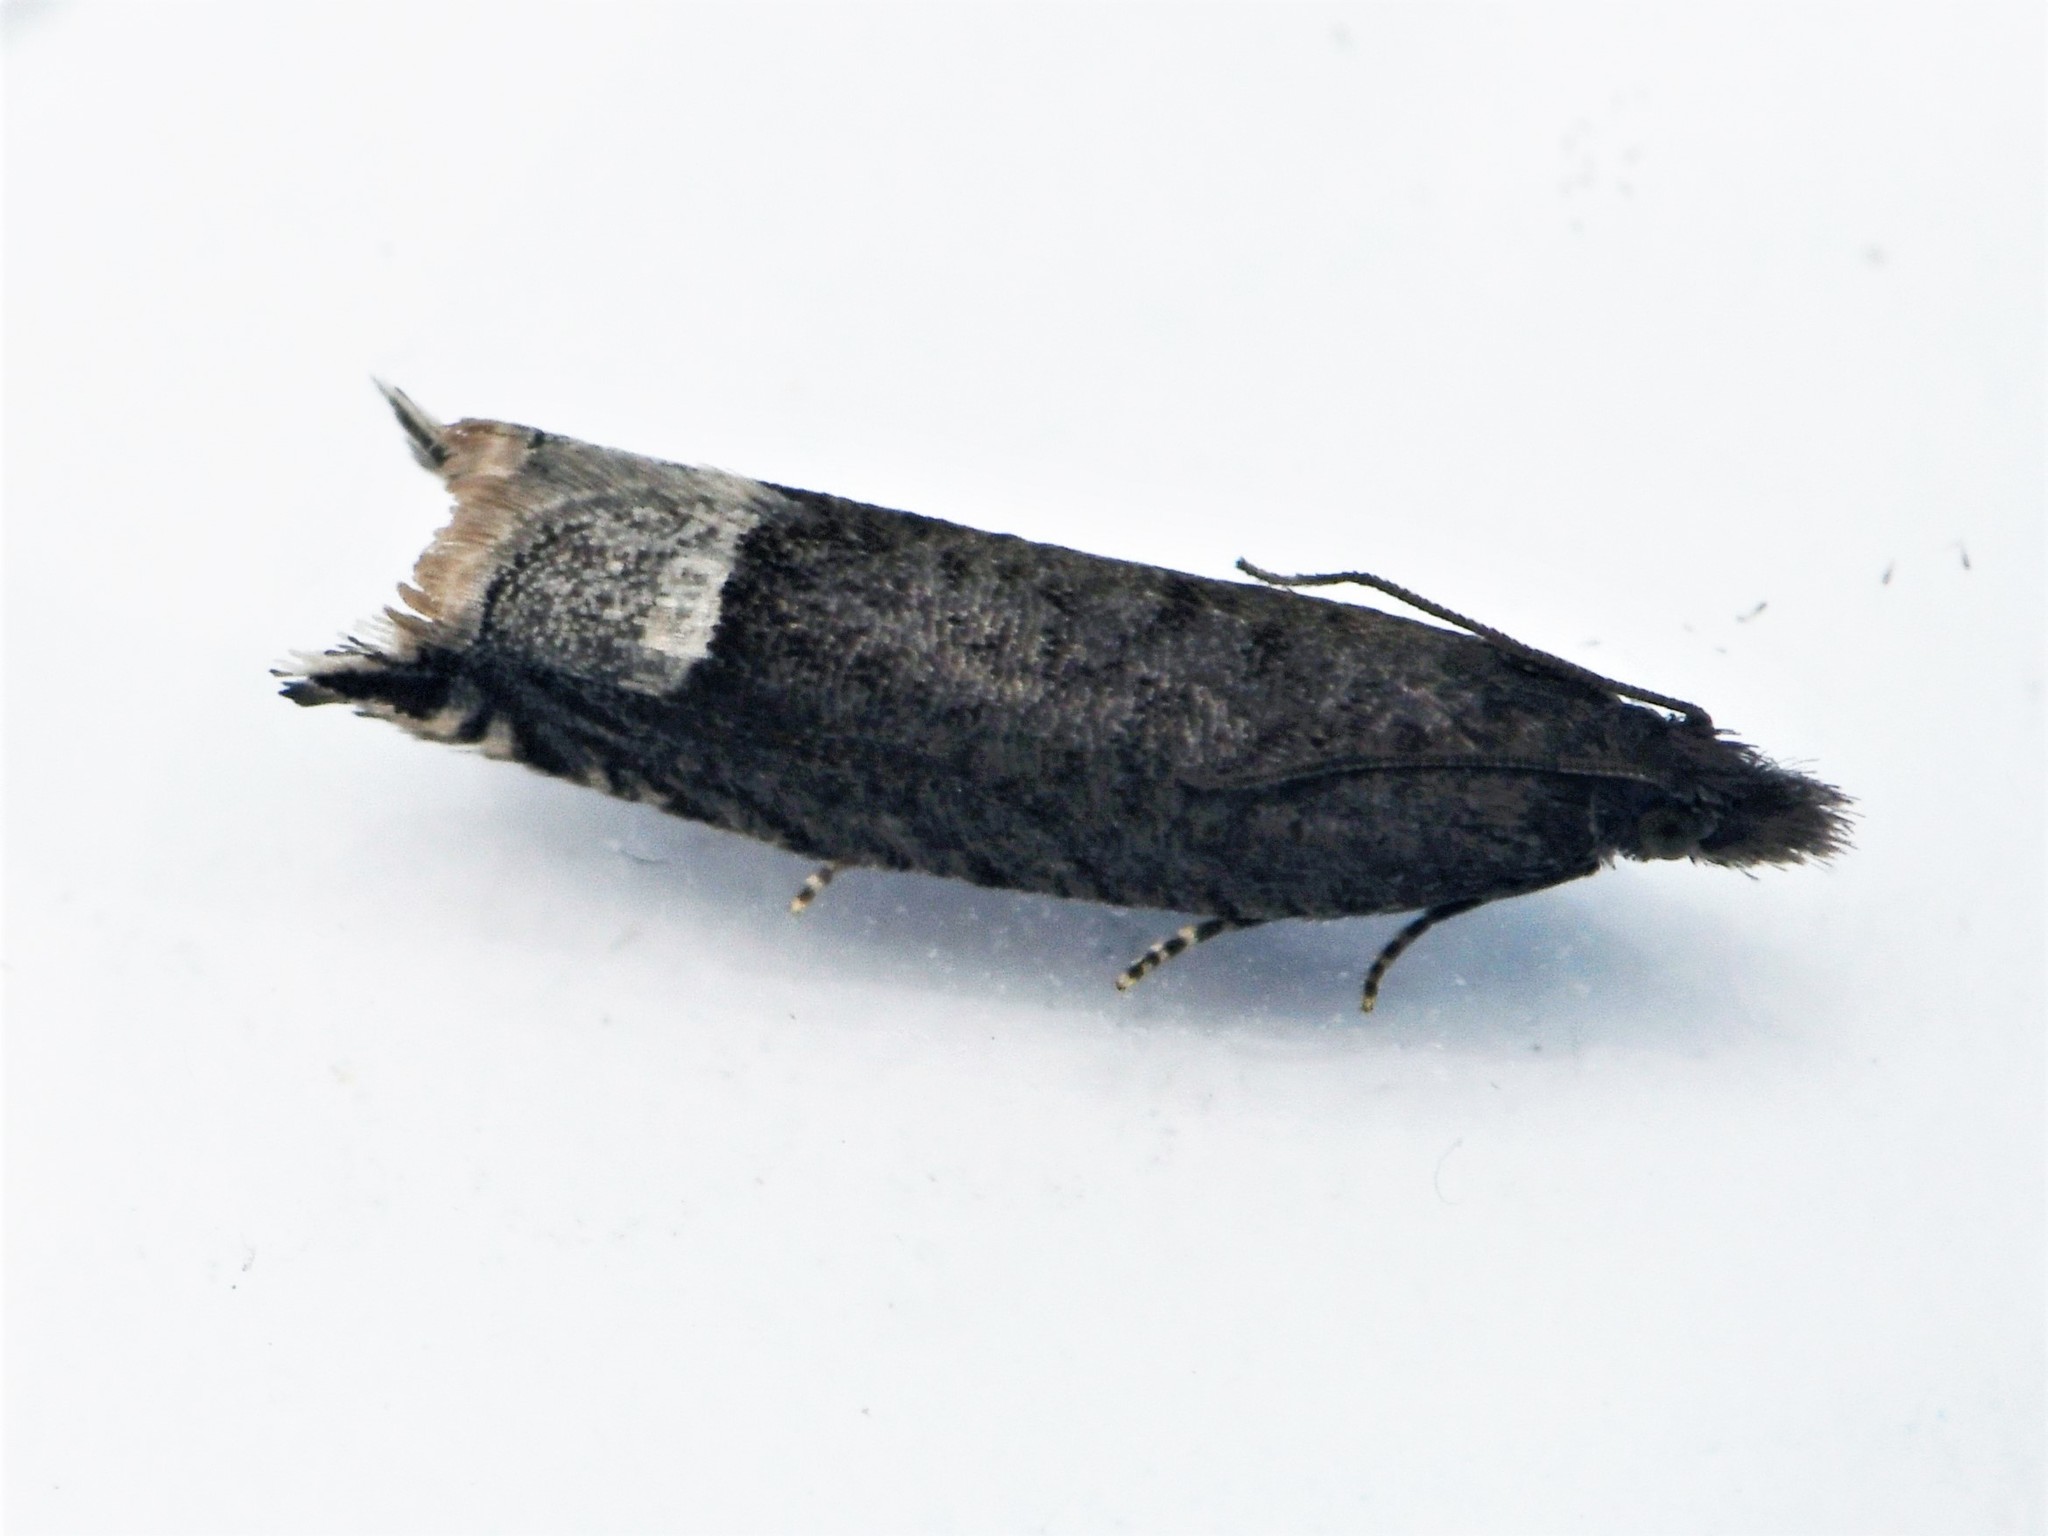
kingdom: Animalia
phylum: Arthropoda
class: Insecta
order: Lepidoptera
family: Tortricidae
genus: Ancylis
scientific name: Ancylis tineana
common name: Rannoch roller
